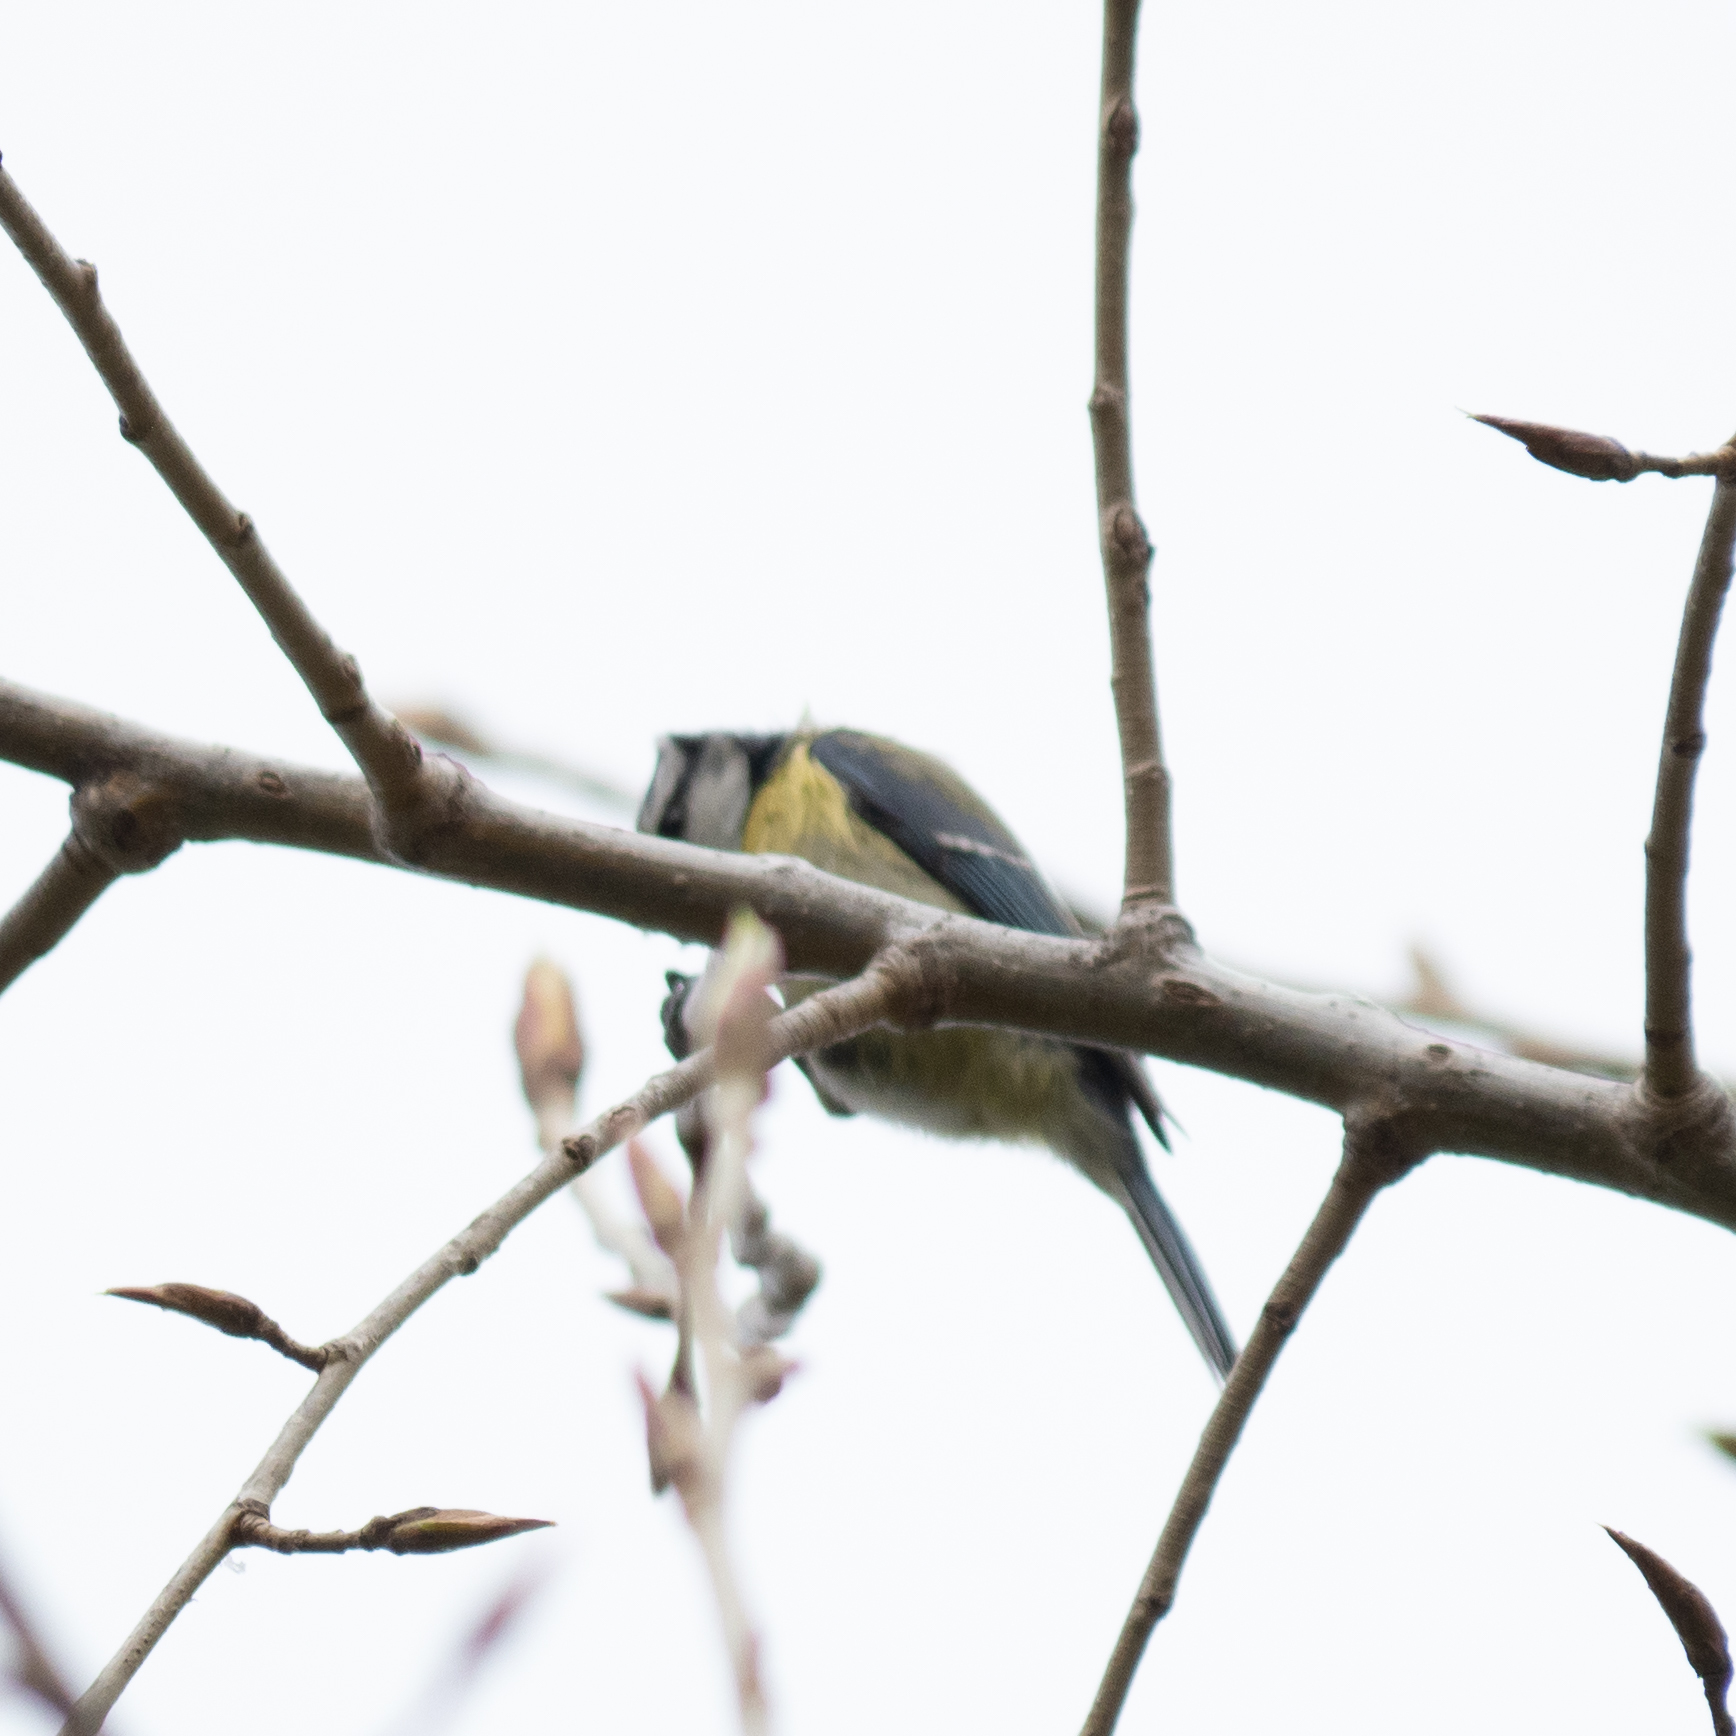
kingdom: Animalia
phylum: Chordata
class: Aves
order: Passeriformes
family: Paridae
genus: Cyanistes
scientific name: Cyanistes caeruleus
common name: Eurasian blue tit
